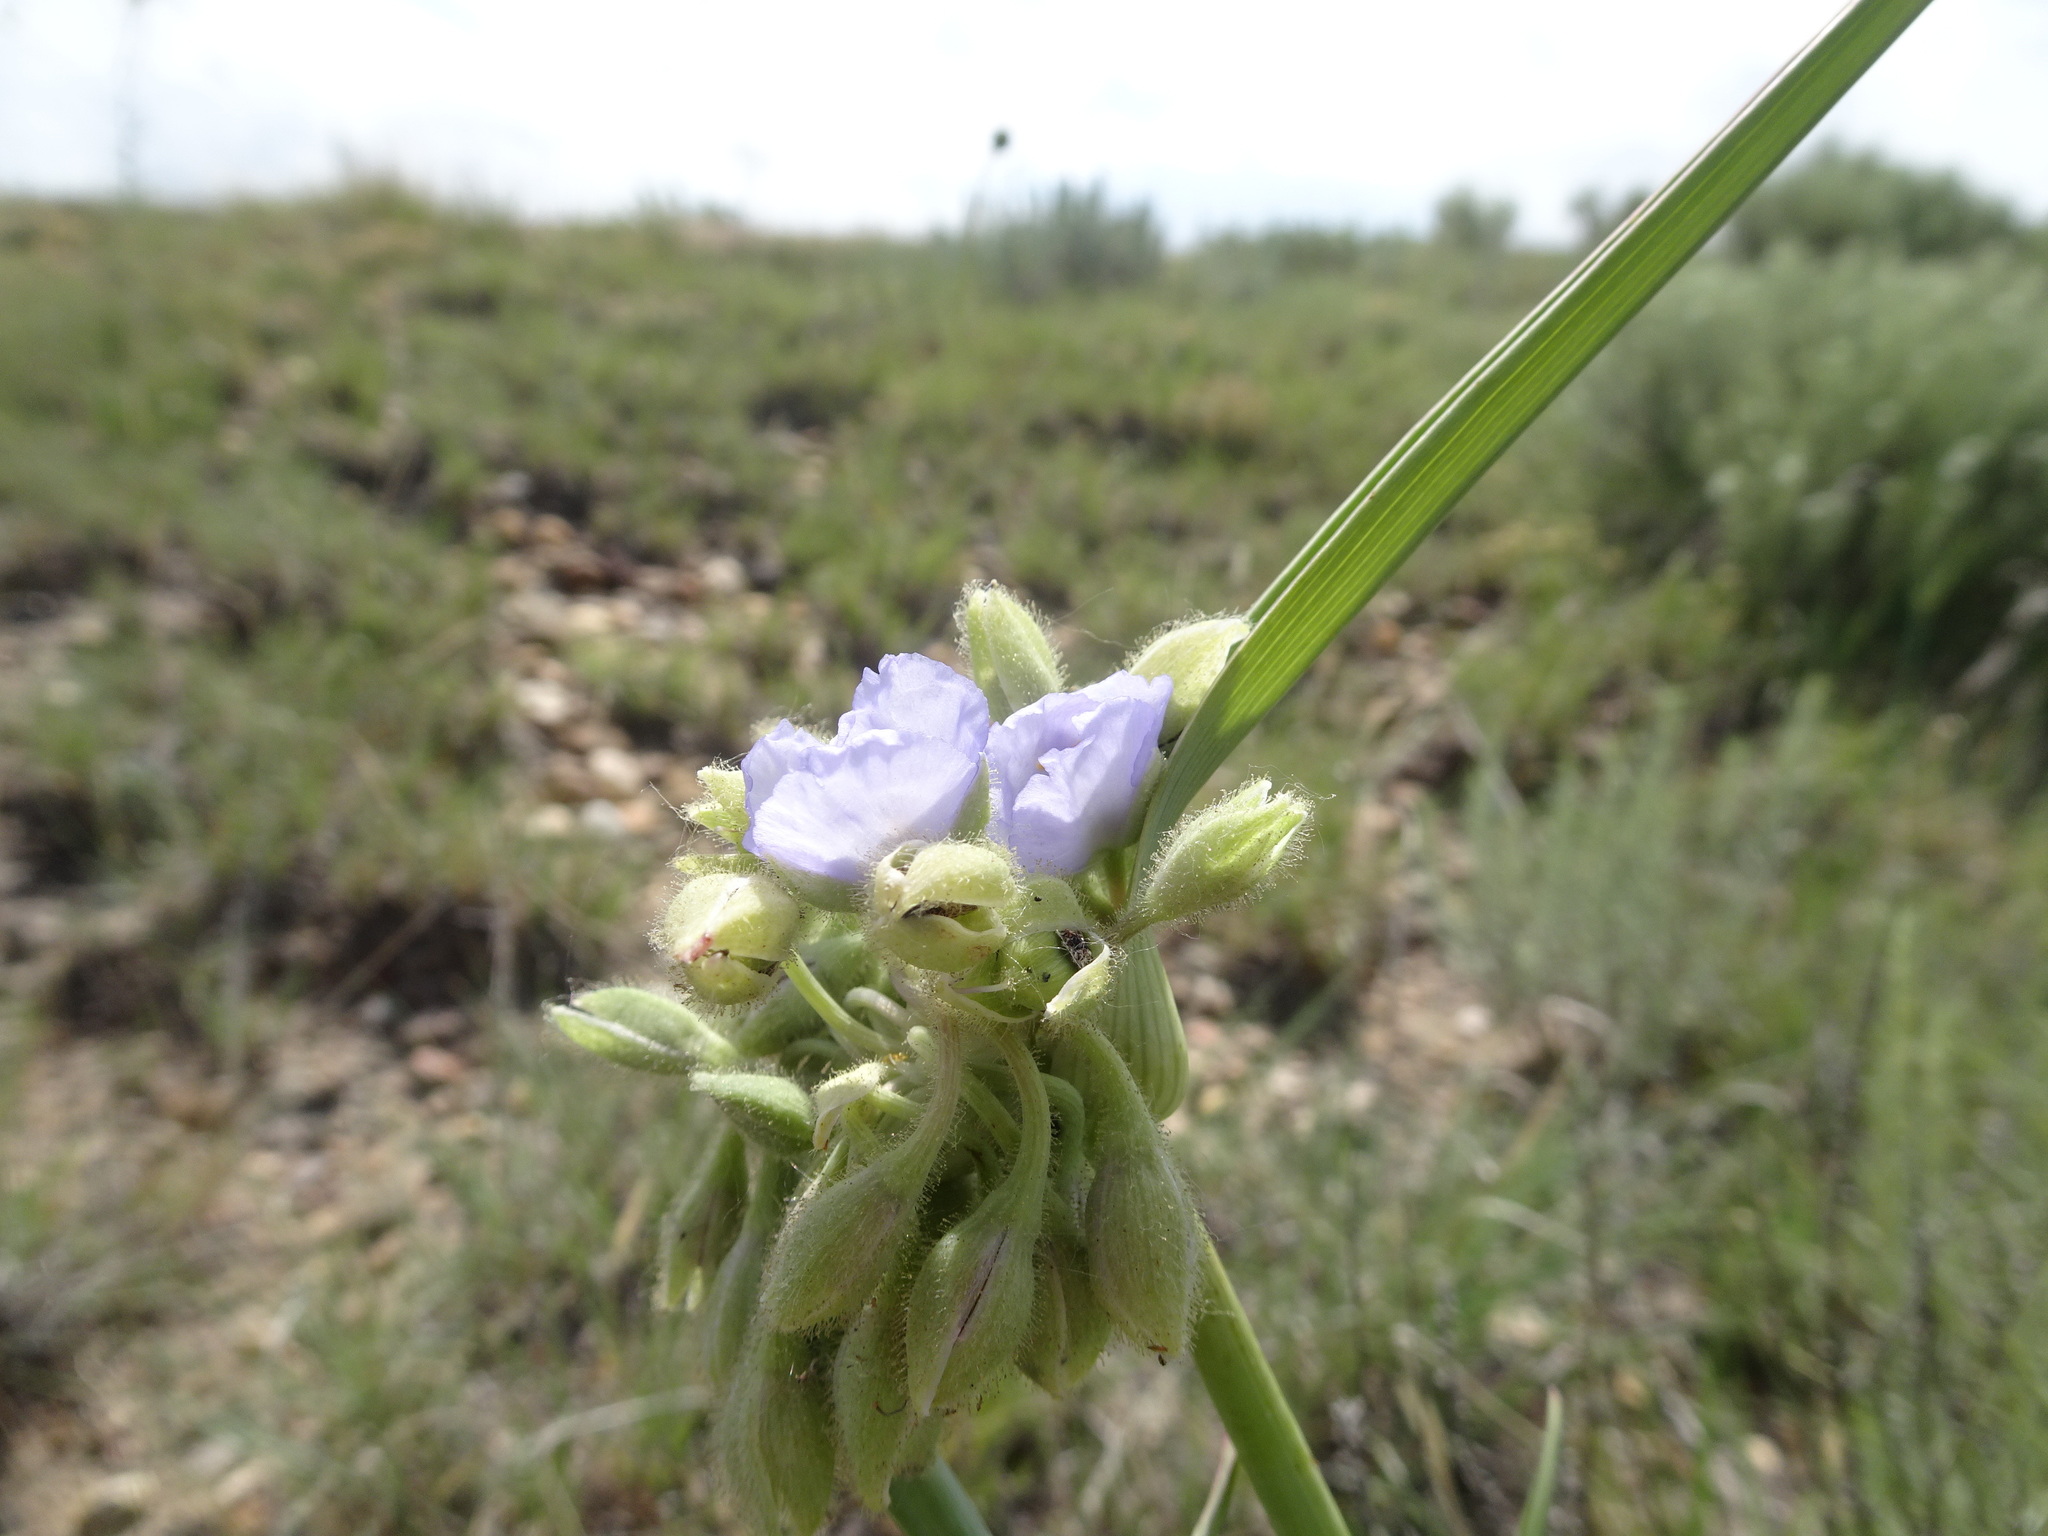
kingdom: Plantae
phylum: Tracheophyta
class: Liliopsida
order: Commelinales
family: Commelinaceae
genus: Tradescantia
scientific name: Tradescantia occidentalis
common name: Prairie spiderwort
